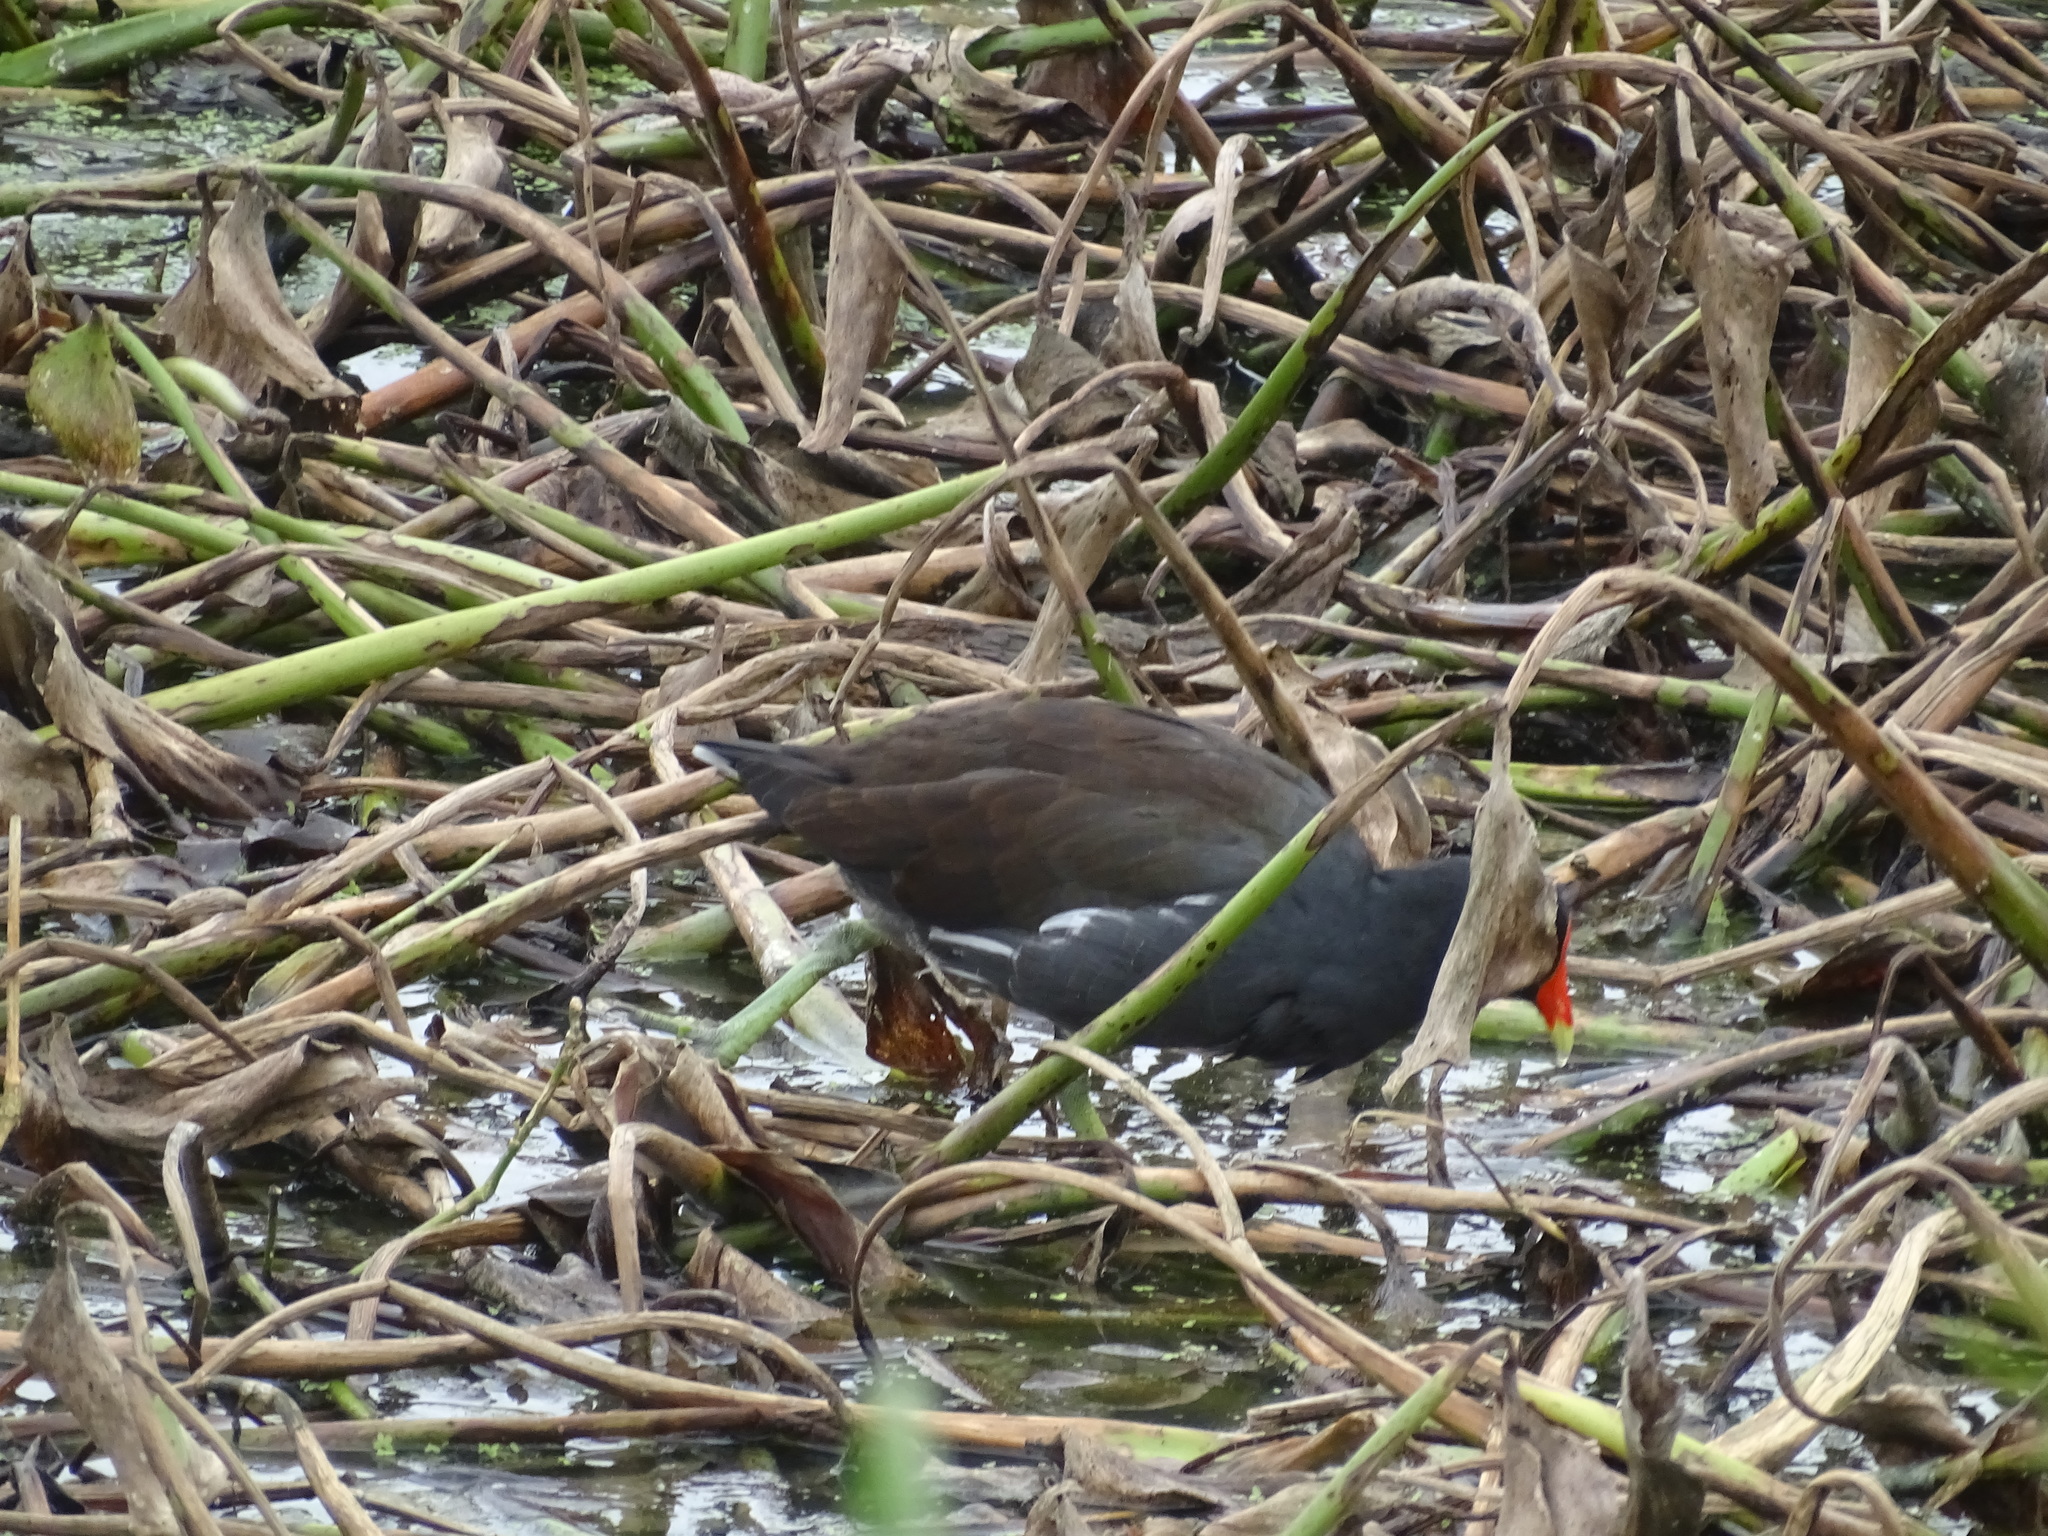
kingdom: Animalia
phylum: Chordata
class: Aves
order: Gruiformes
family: Rallidae
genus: Gallinula
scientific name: Gallinula chloropus
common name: Common moorhen
